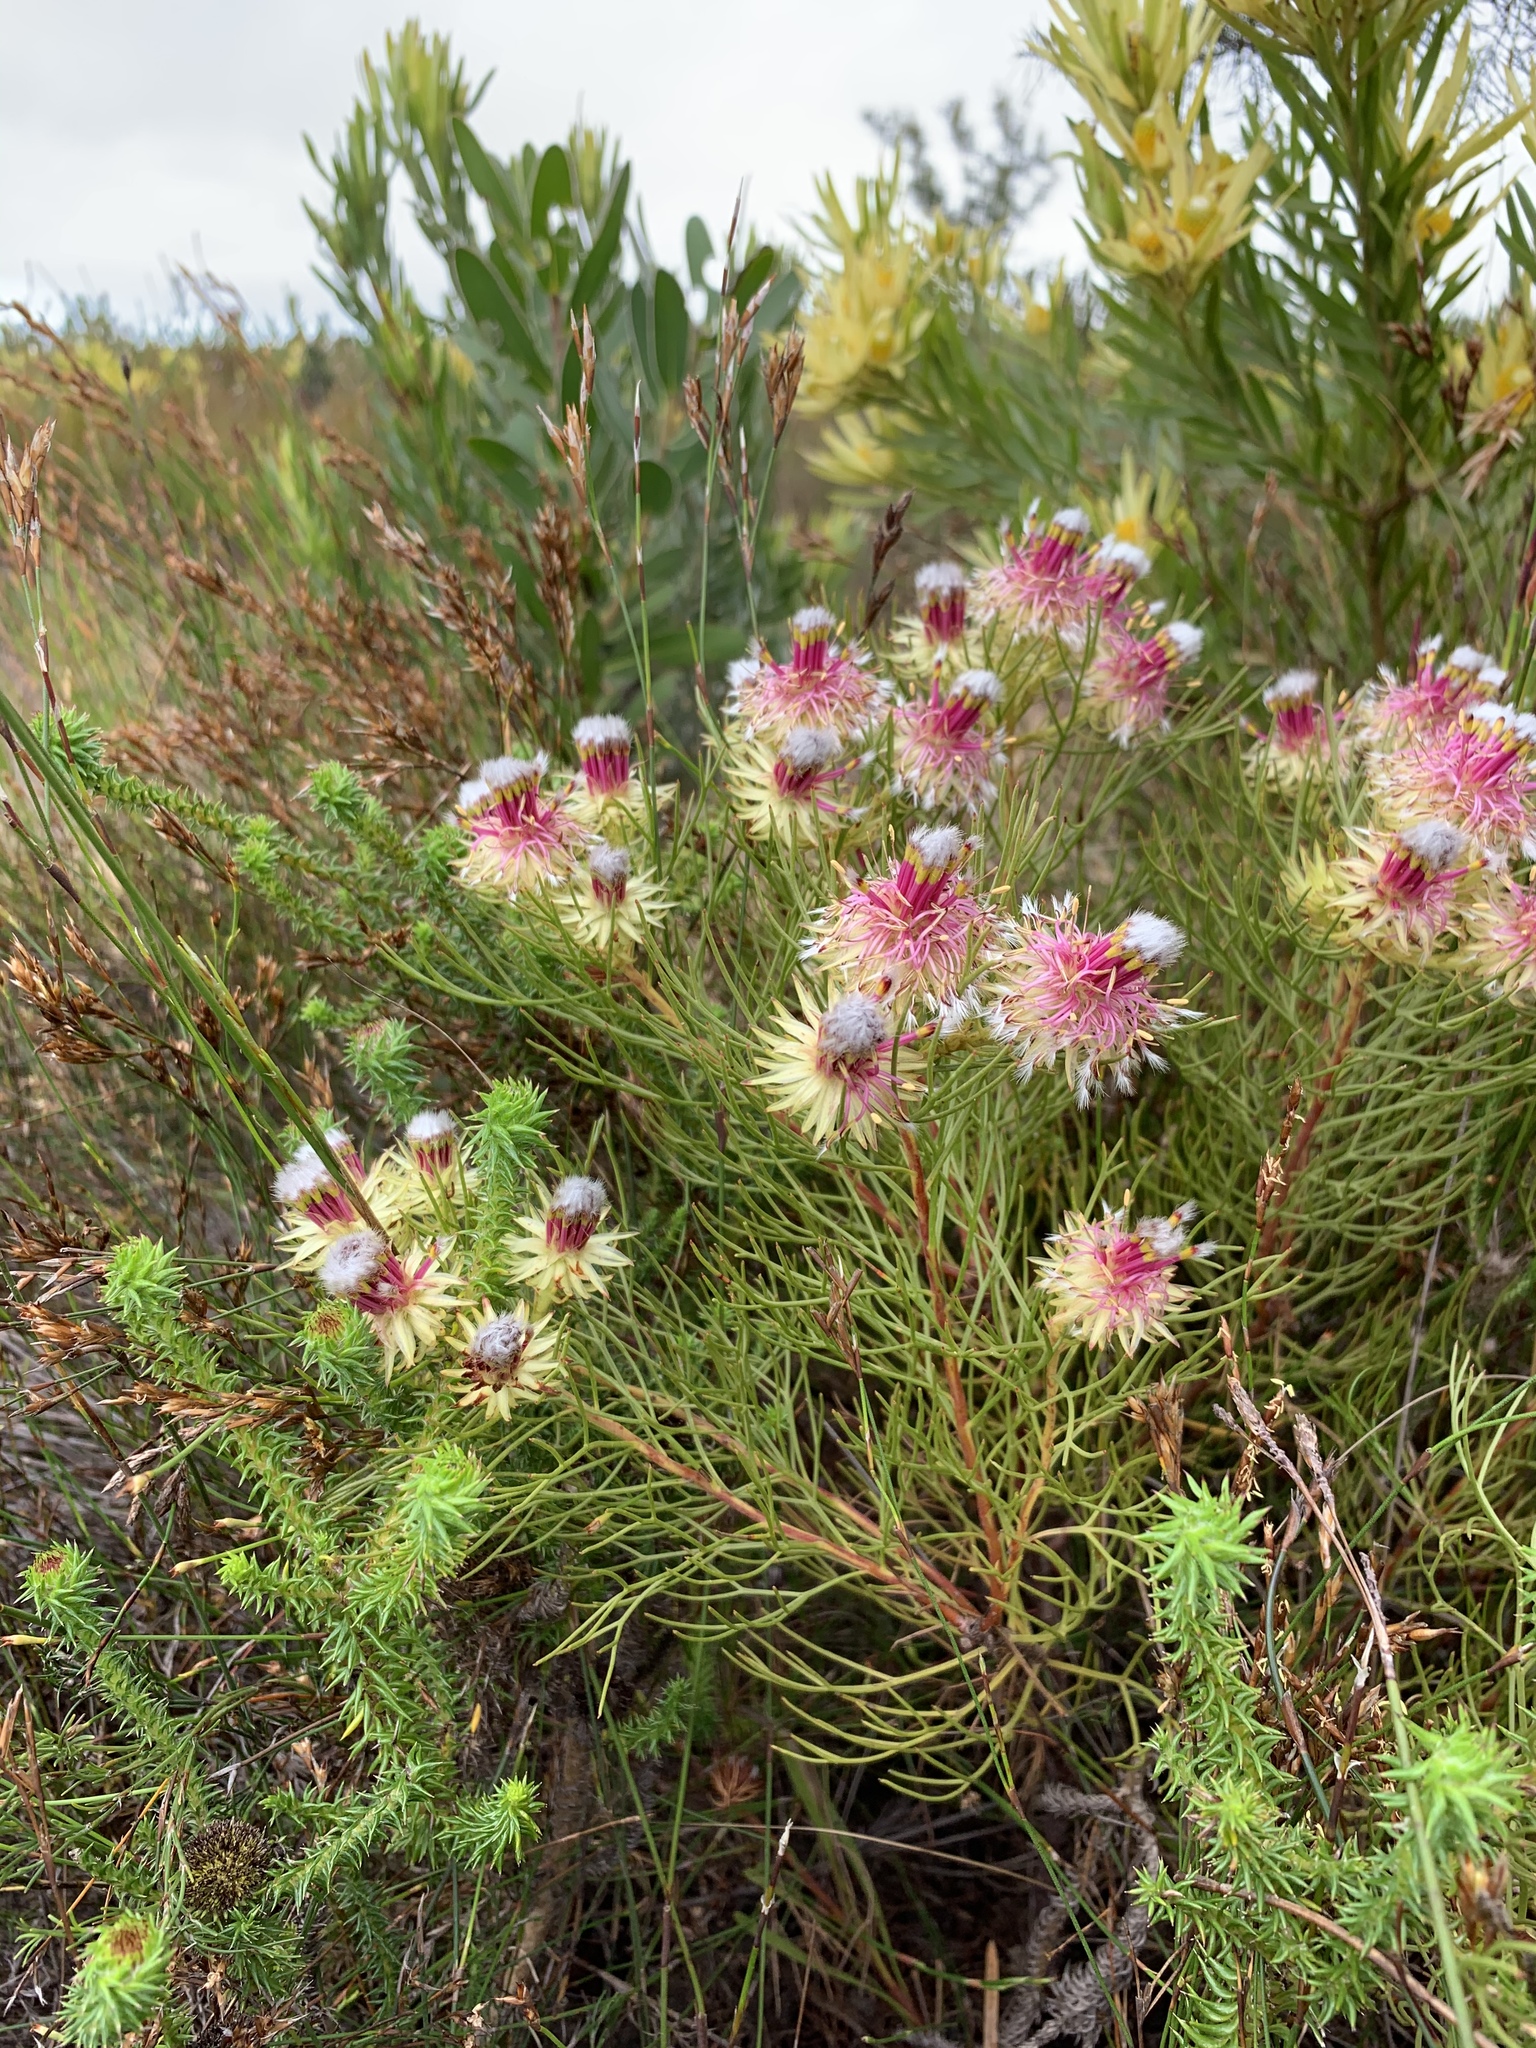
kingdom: Plantae
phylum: Tracheophyta
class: Magnoliopsida
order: Proteales
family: Proteaceae
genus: Serruria
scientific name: Serruria phylicoides
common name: Bearded spiderhead
